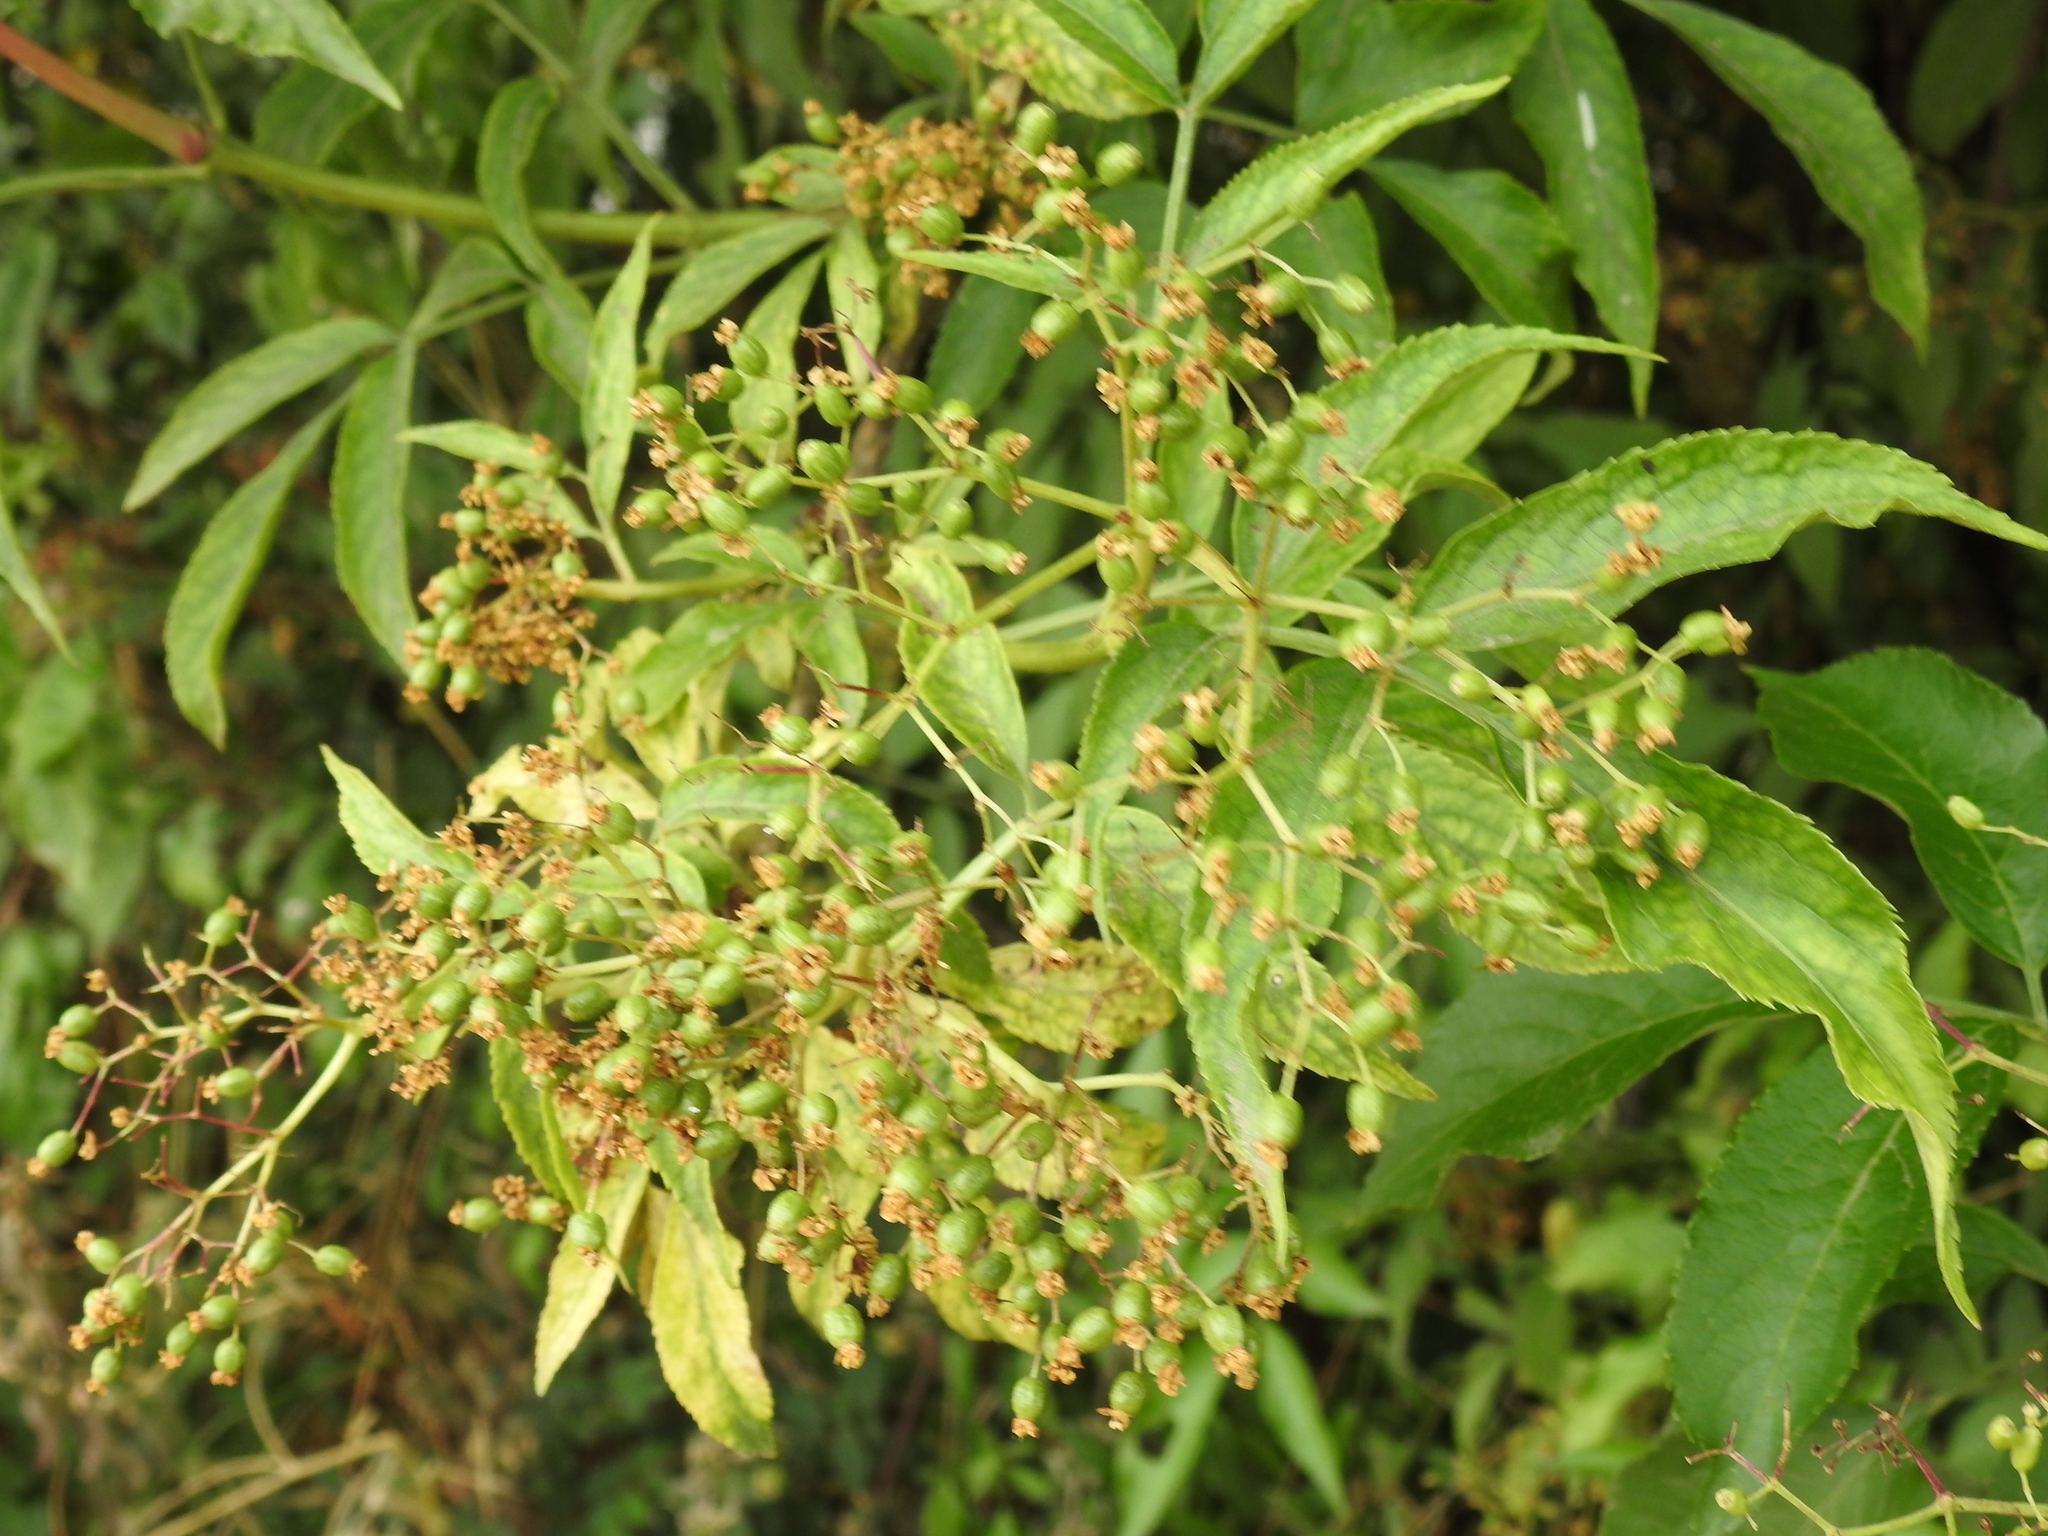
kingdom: Plantae
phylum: Tracheophyta
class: Magnoliopsida
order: Dipsacales
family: Viburnaceae
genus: Sambucus
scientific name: Sambucus nigra
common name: Elder
